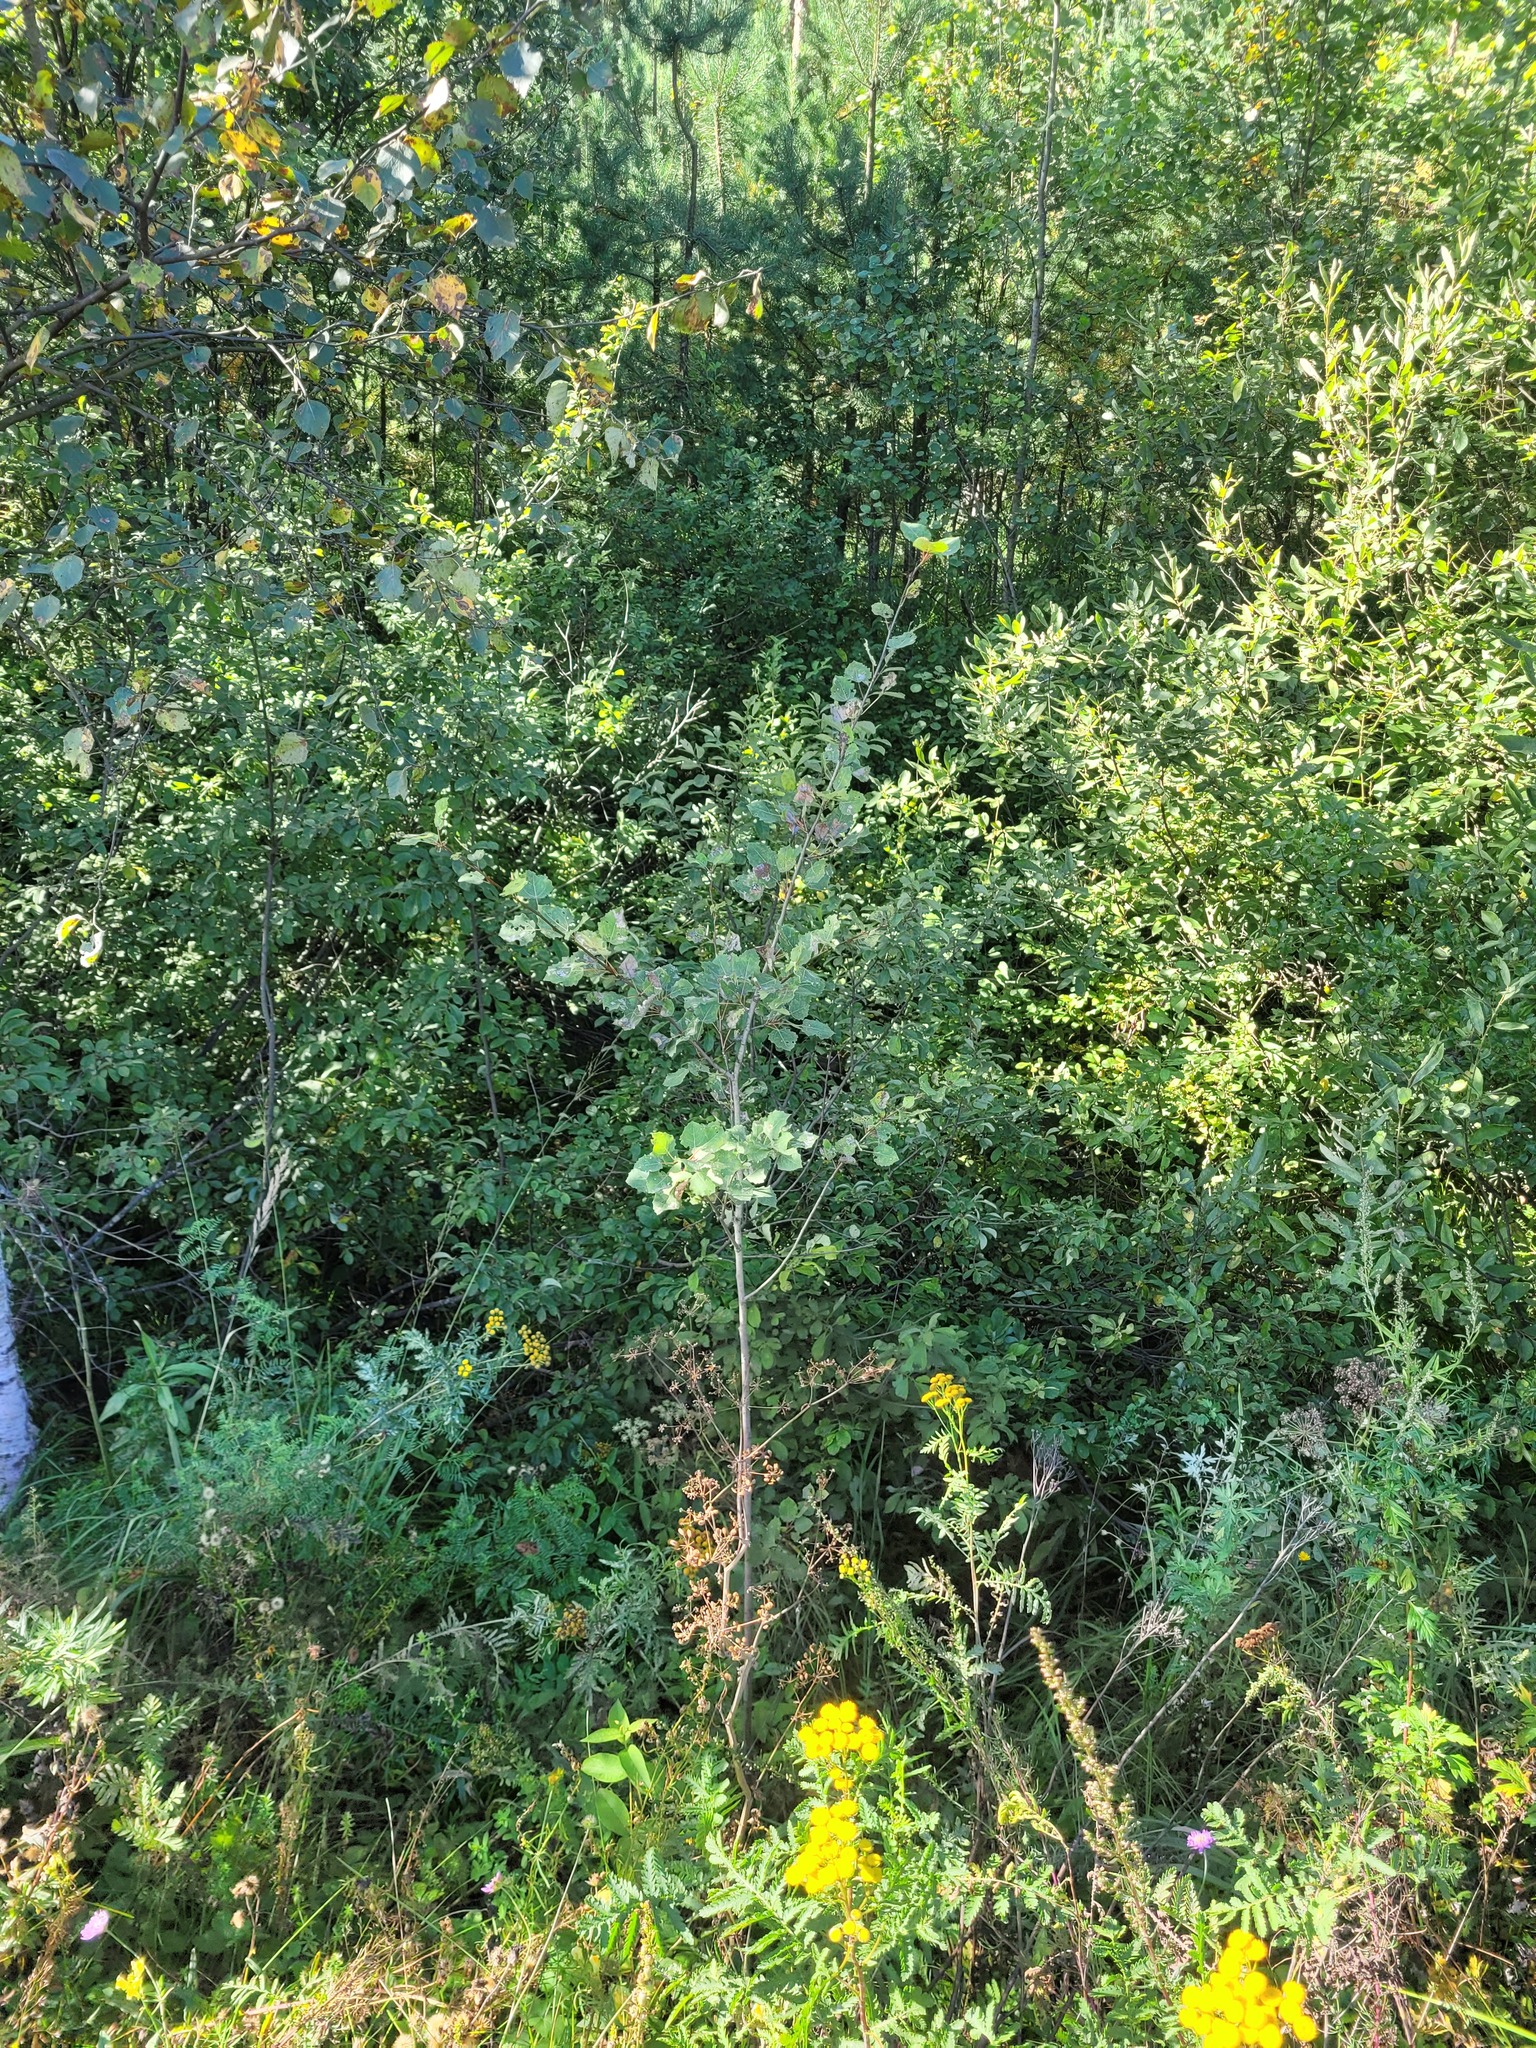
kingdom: Plantae
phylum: Tracheophyta
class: Magnoliopsida
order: Malpighiales
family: Salicaceae
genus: Populus
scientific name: Populus tremula
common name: European aspen
